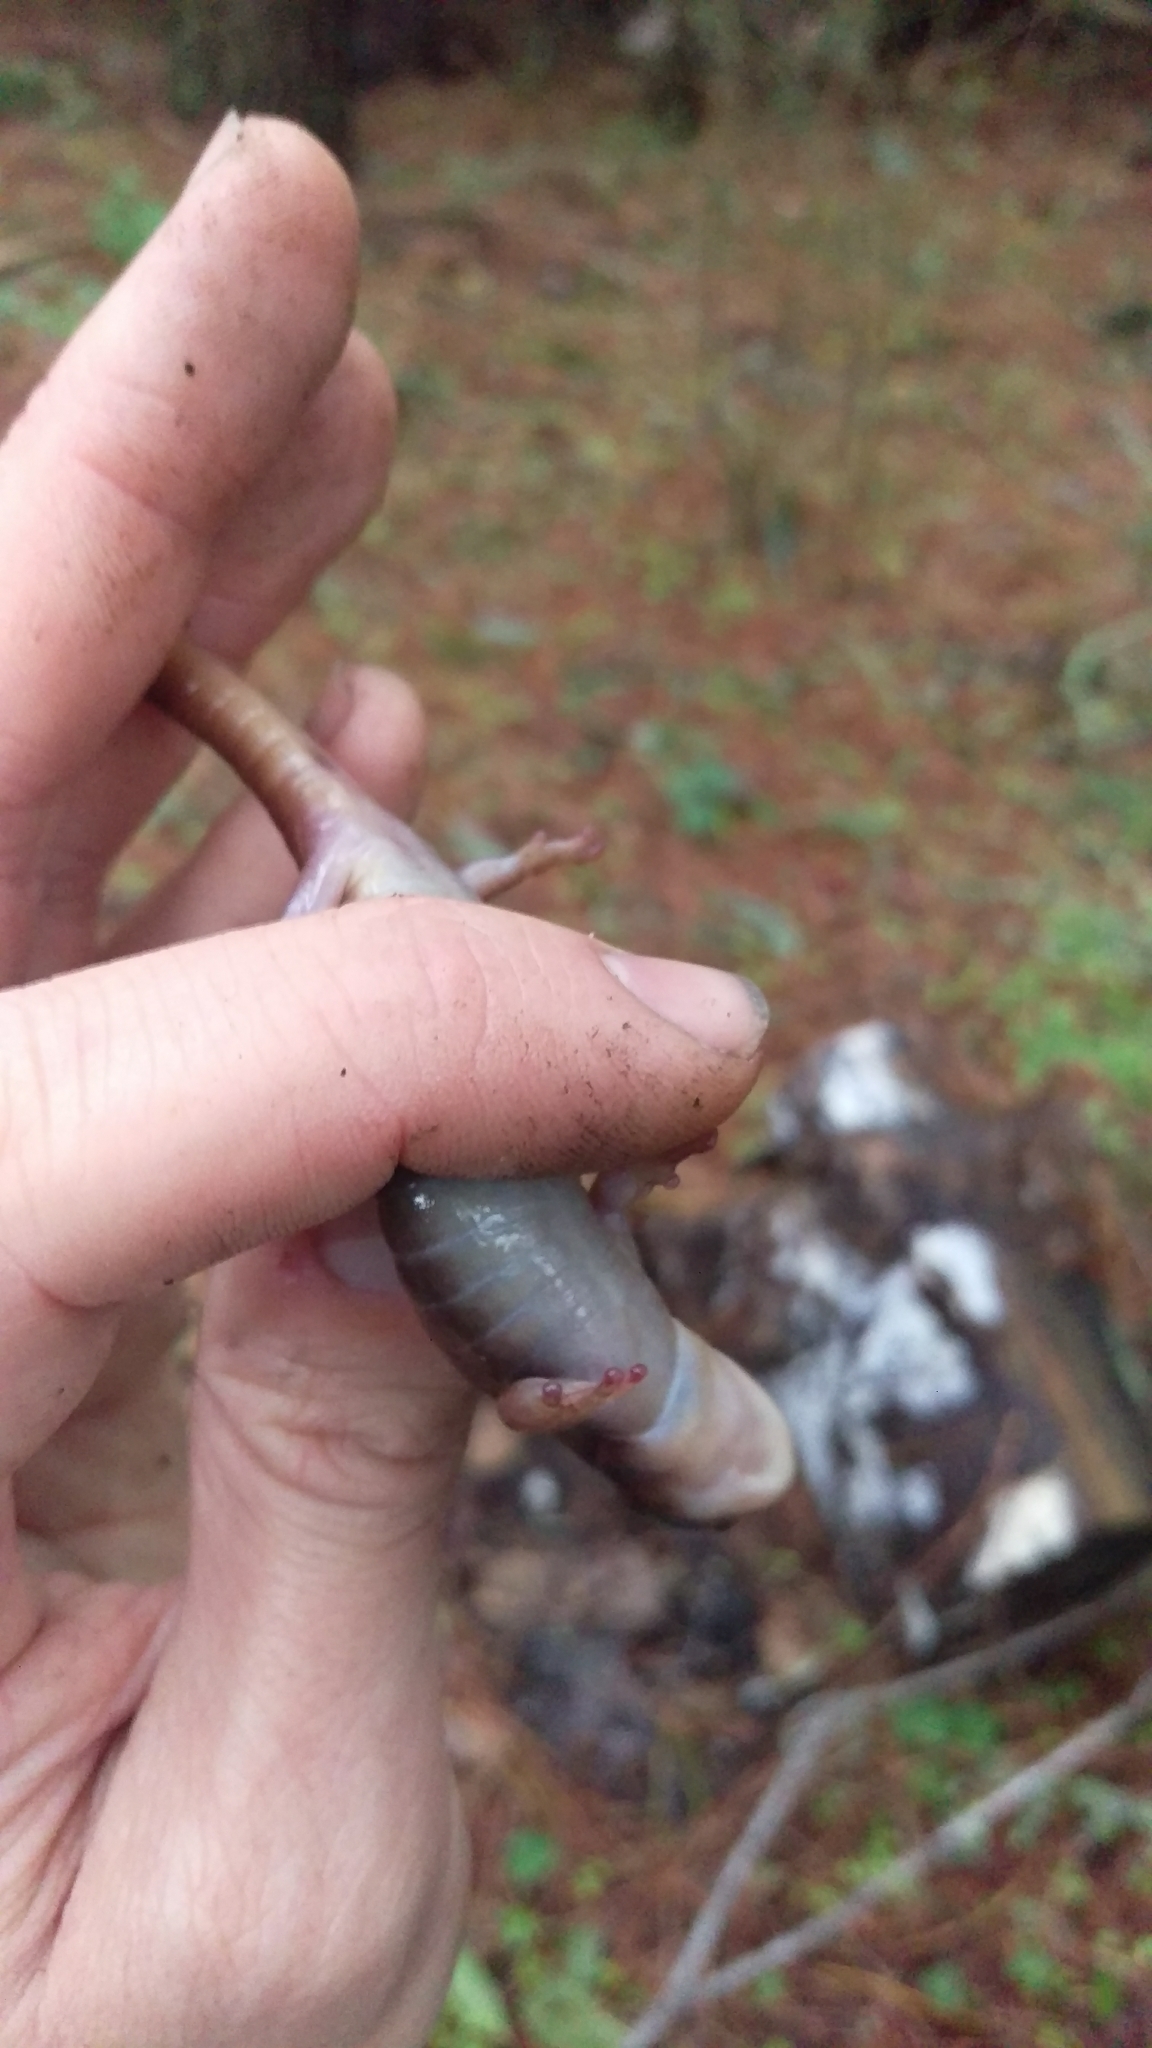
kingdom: Animalia
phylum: Chordata
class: Amphibia
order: Caudata
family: Plethodontidae
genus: Aneides
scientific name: Aneides lugubris
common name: Arboreal salamander
